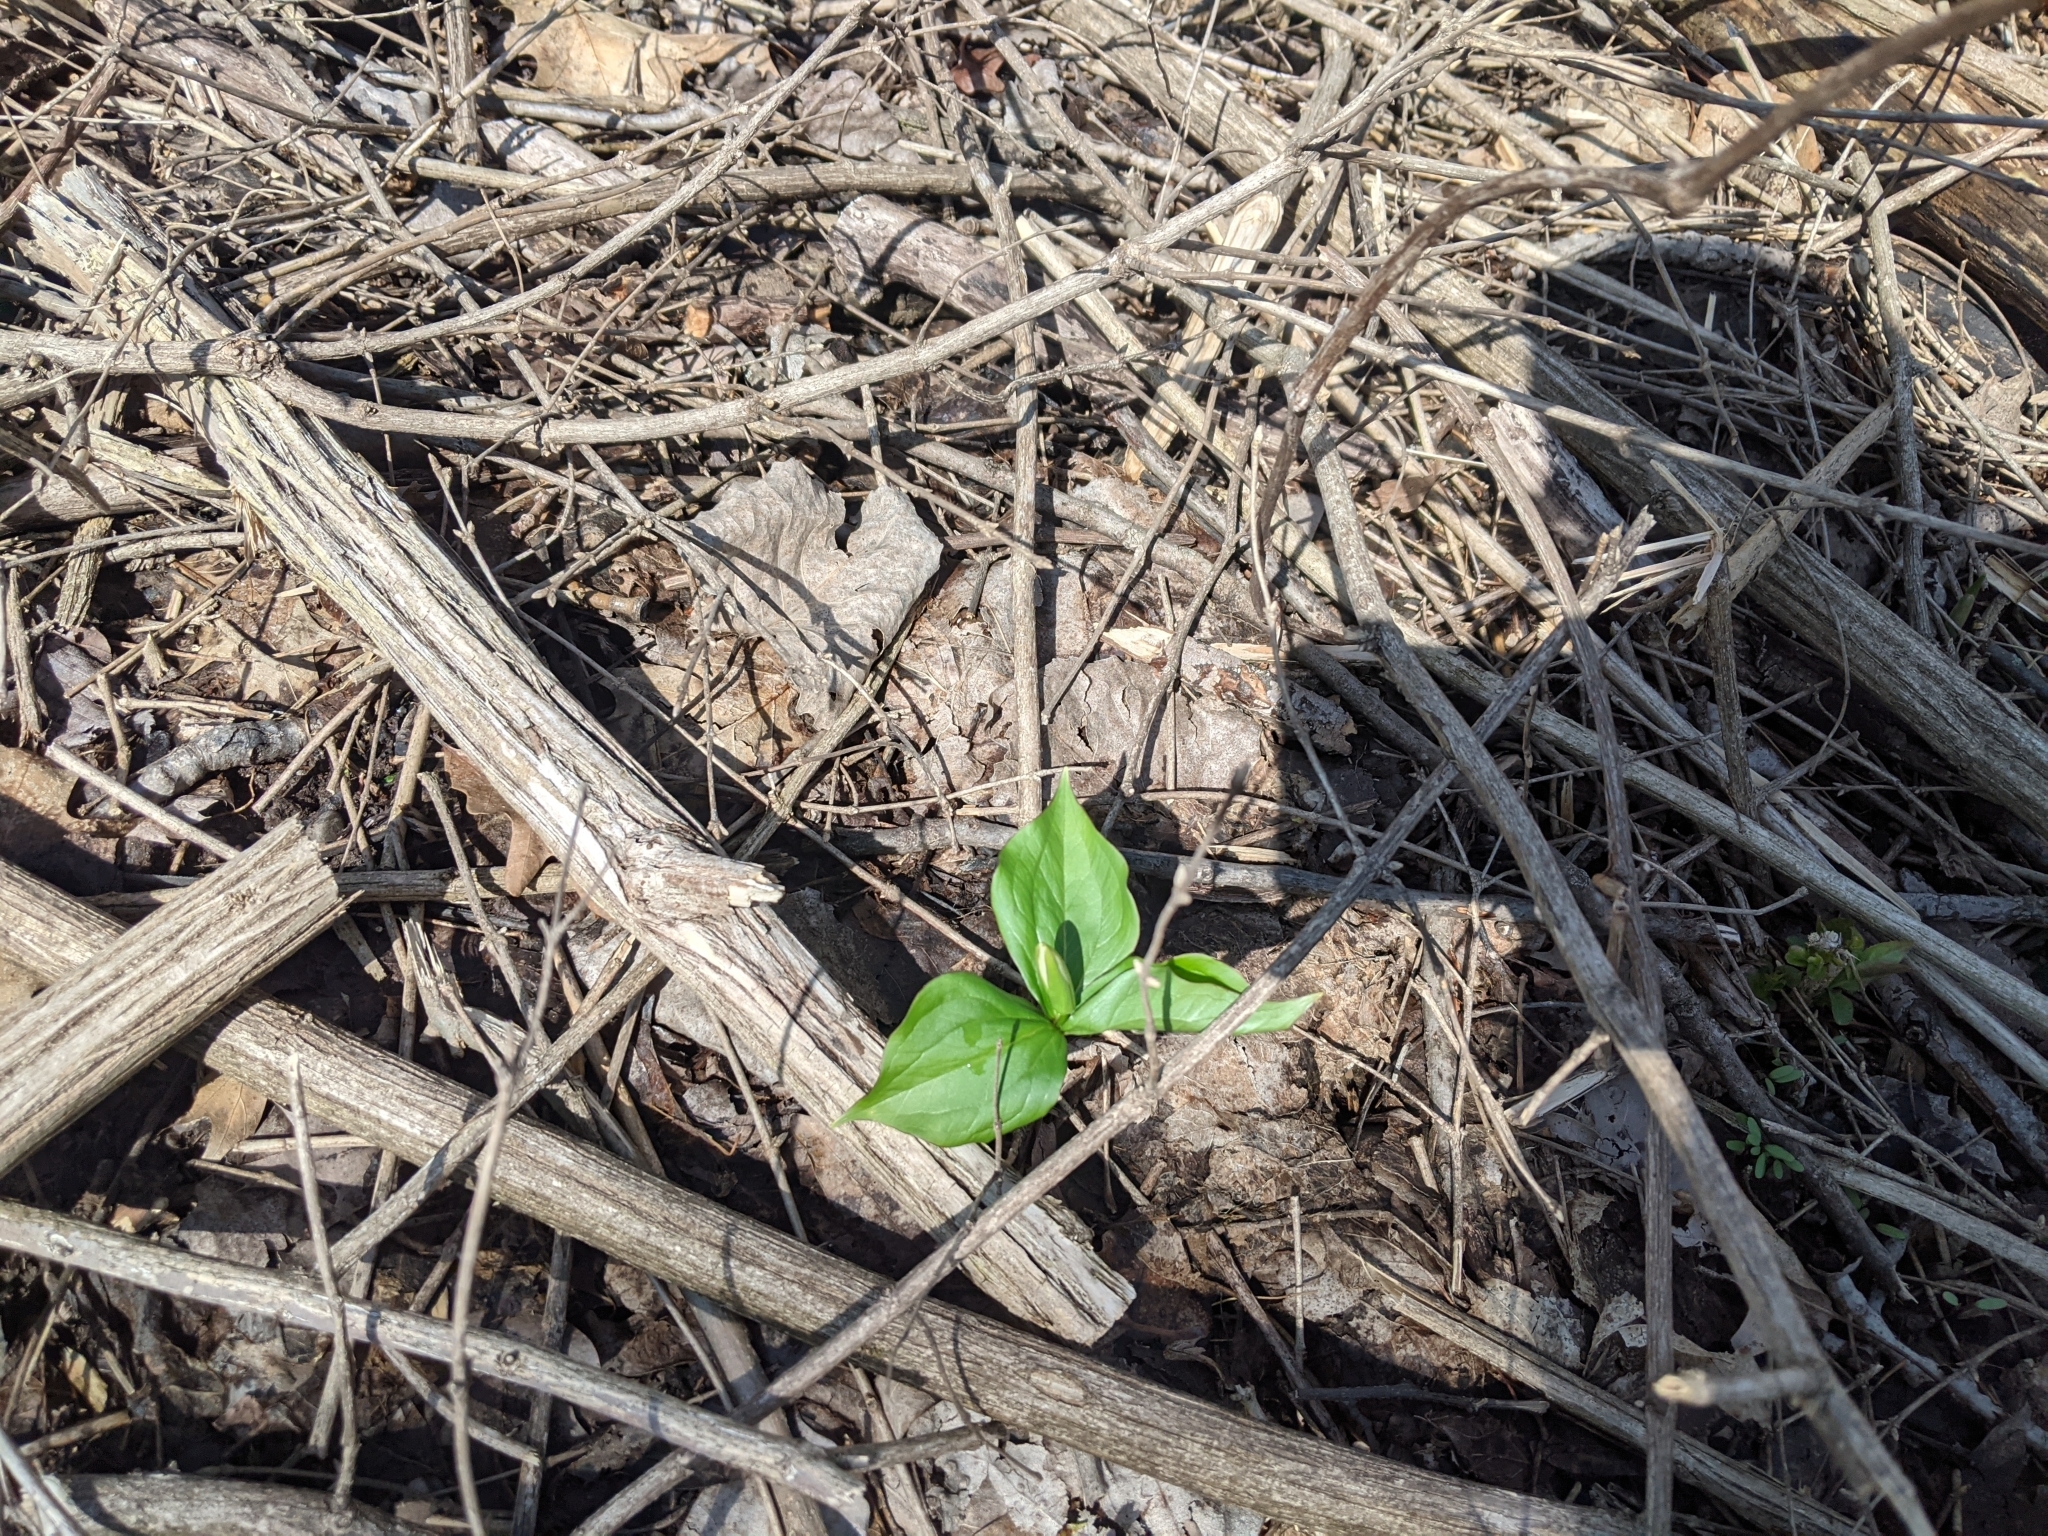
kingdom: Plantae
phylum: Tracheophyta
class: Liliopsida
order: Liliales
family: Melanthiaceae
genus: Trillium
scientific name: Trillium grandiflorum
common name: Great white trillium
